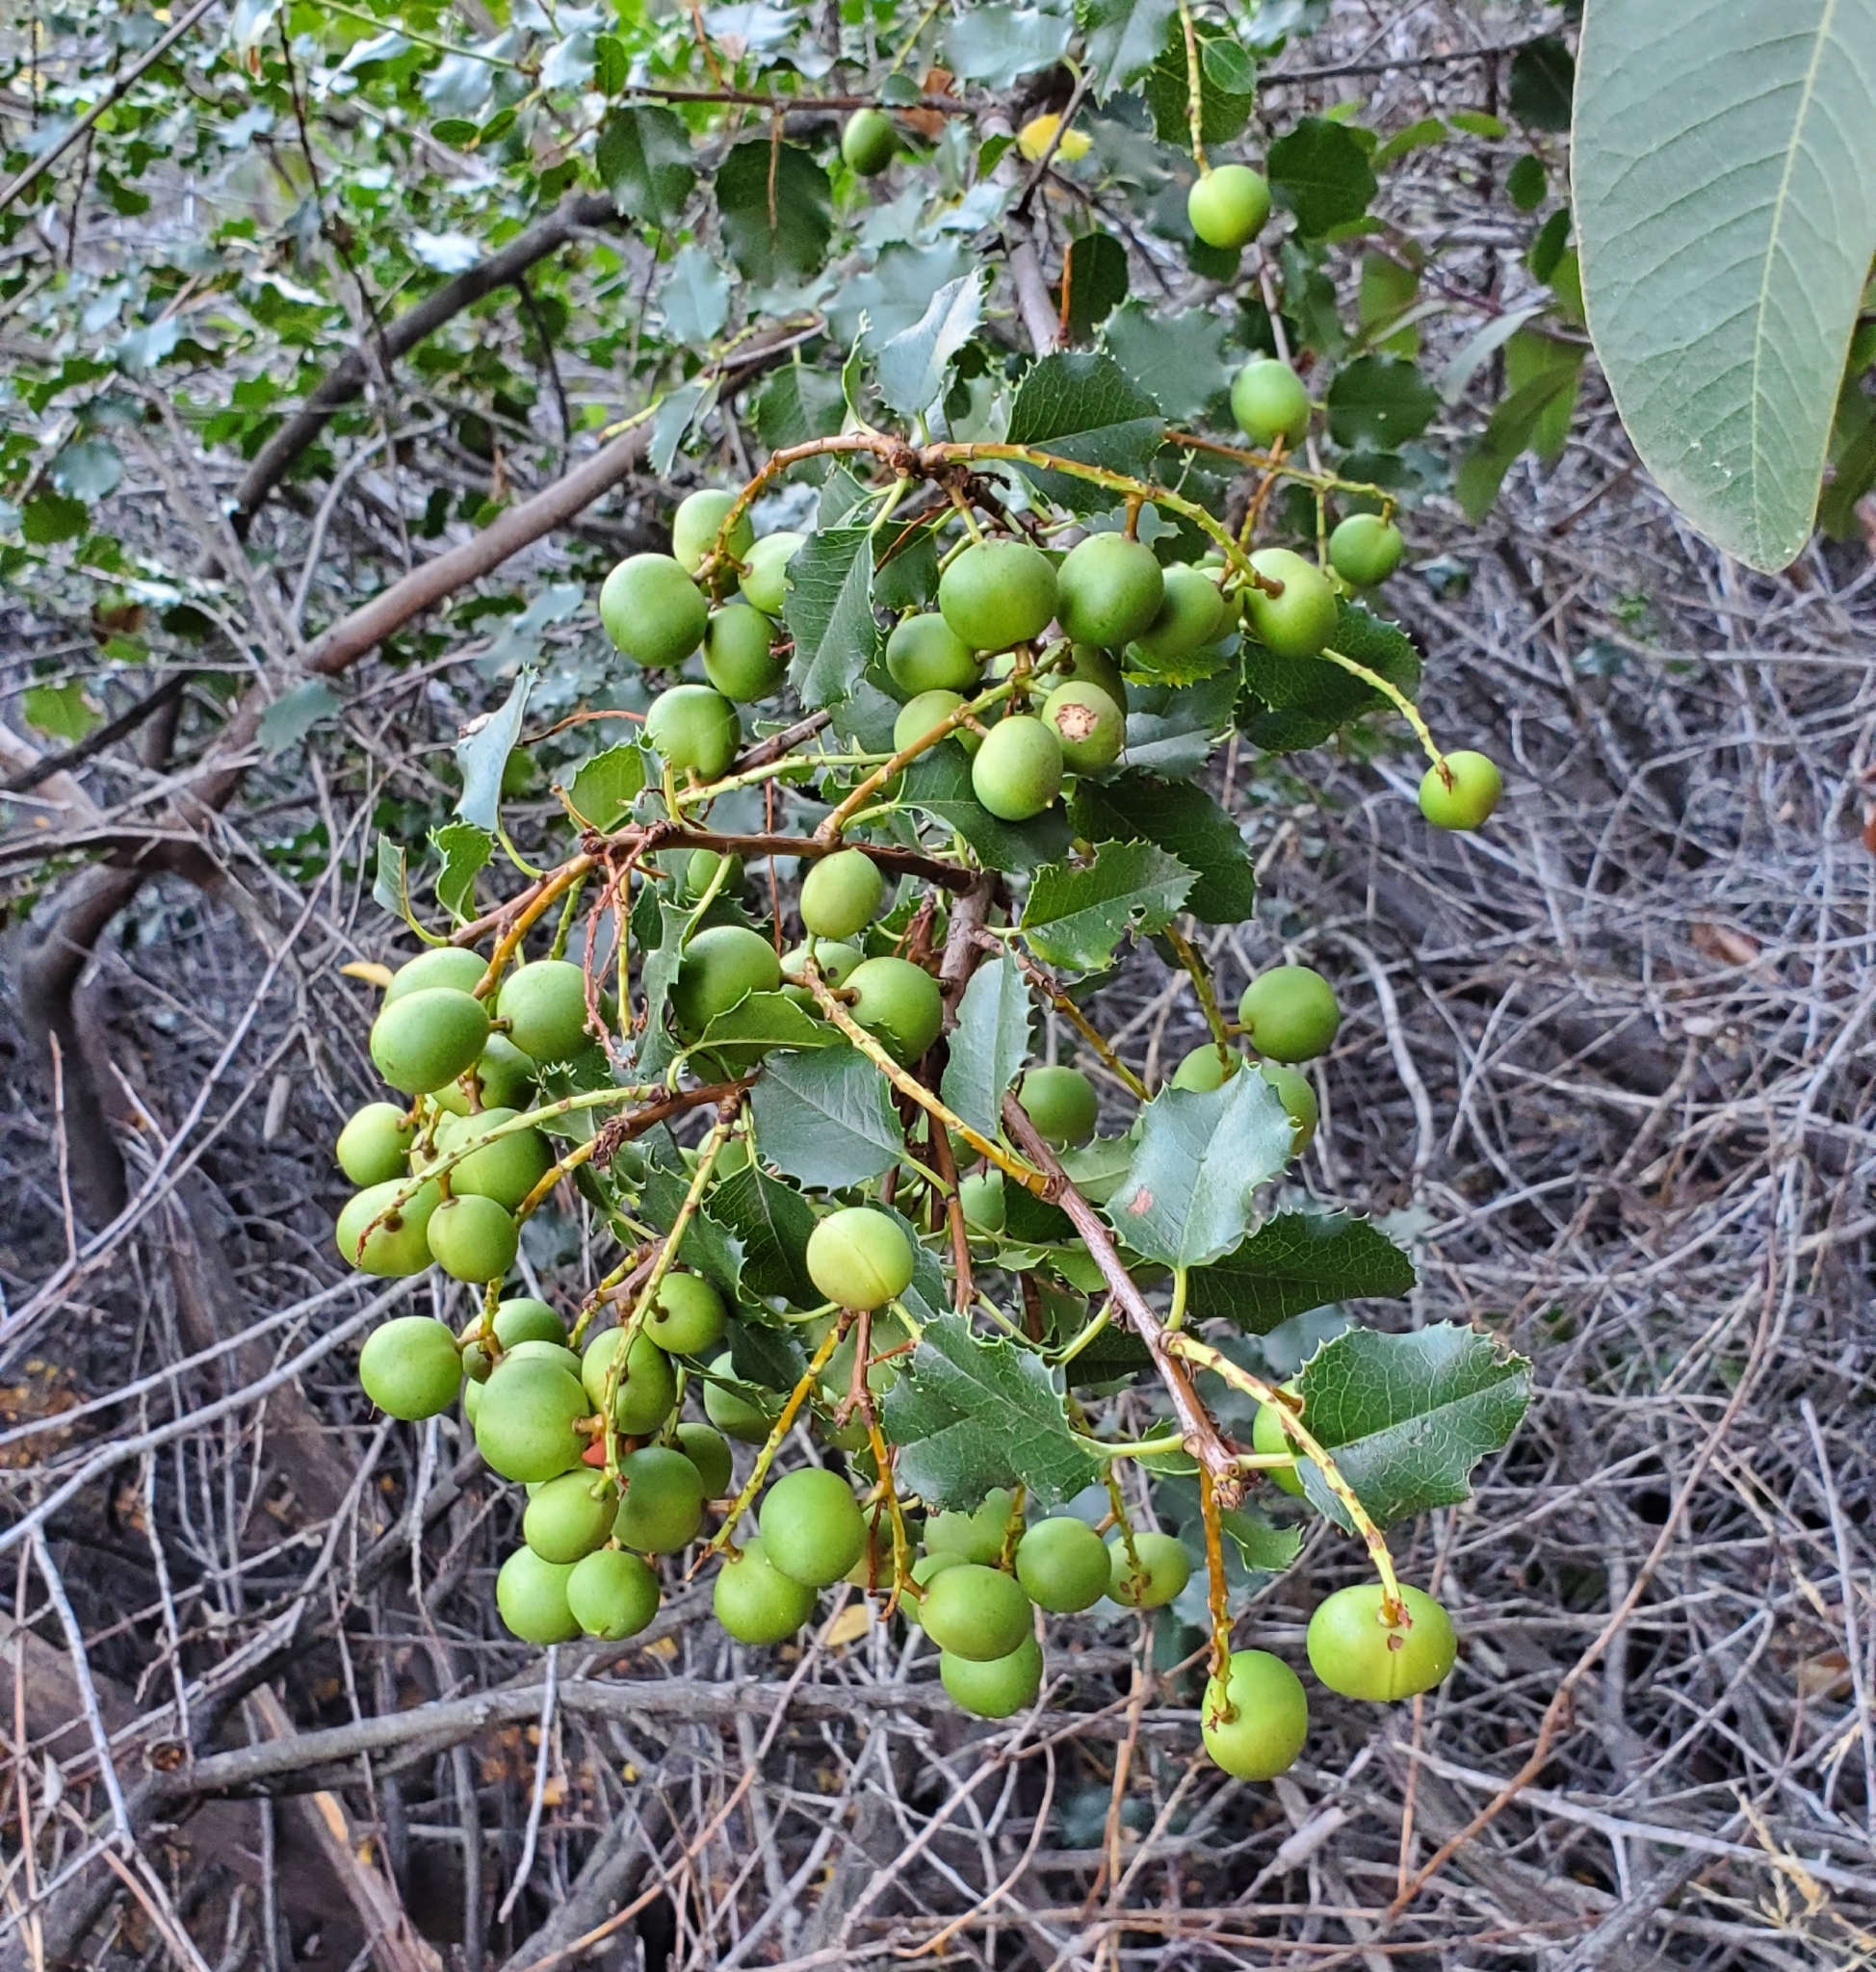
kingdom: Plantae
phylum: Tracheophyta
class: Magnoliopsida
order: Rosales
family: Rosaceae
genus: Prunus
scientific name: Prunus ilicifolia
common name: Hollyleaf cherry
